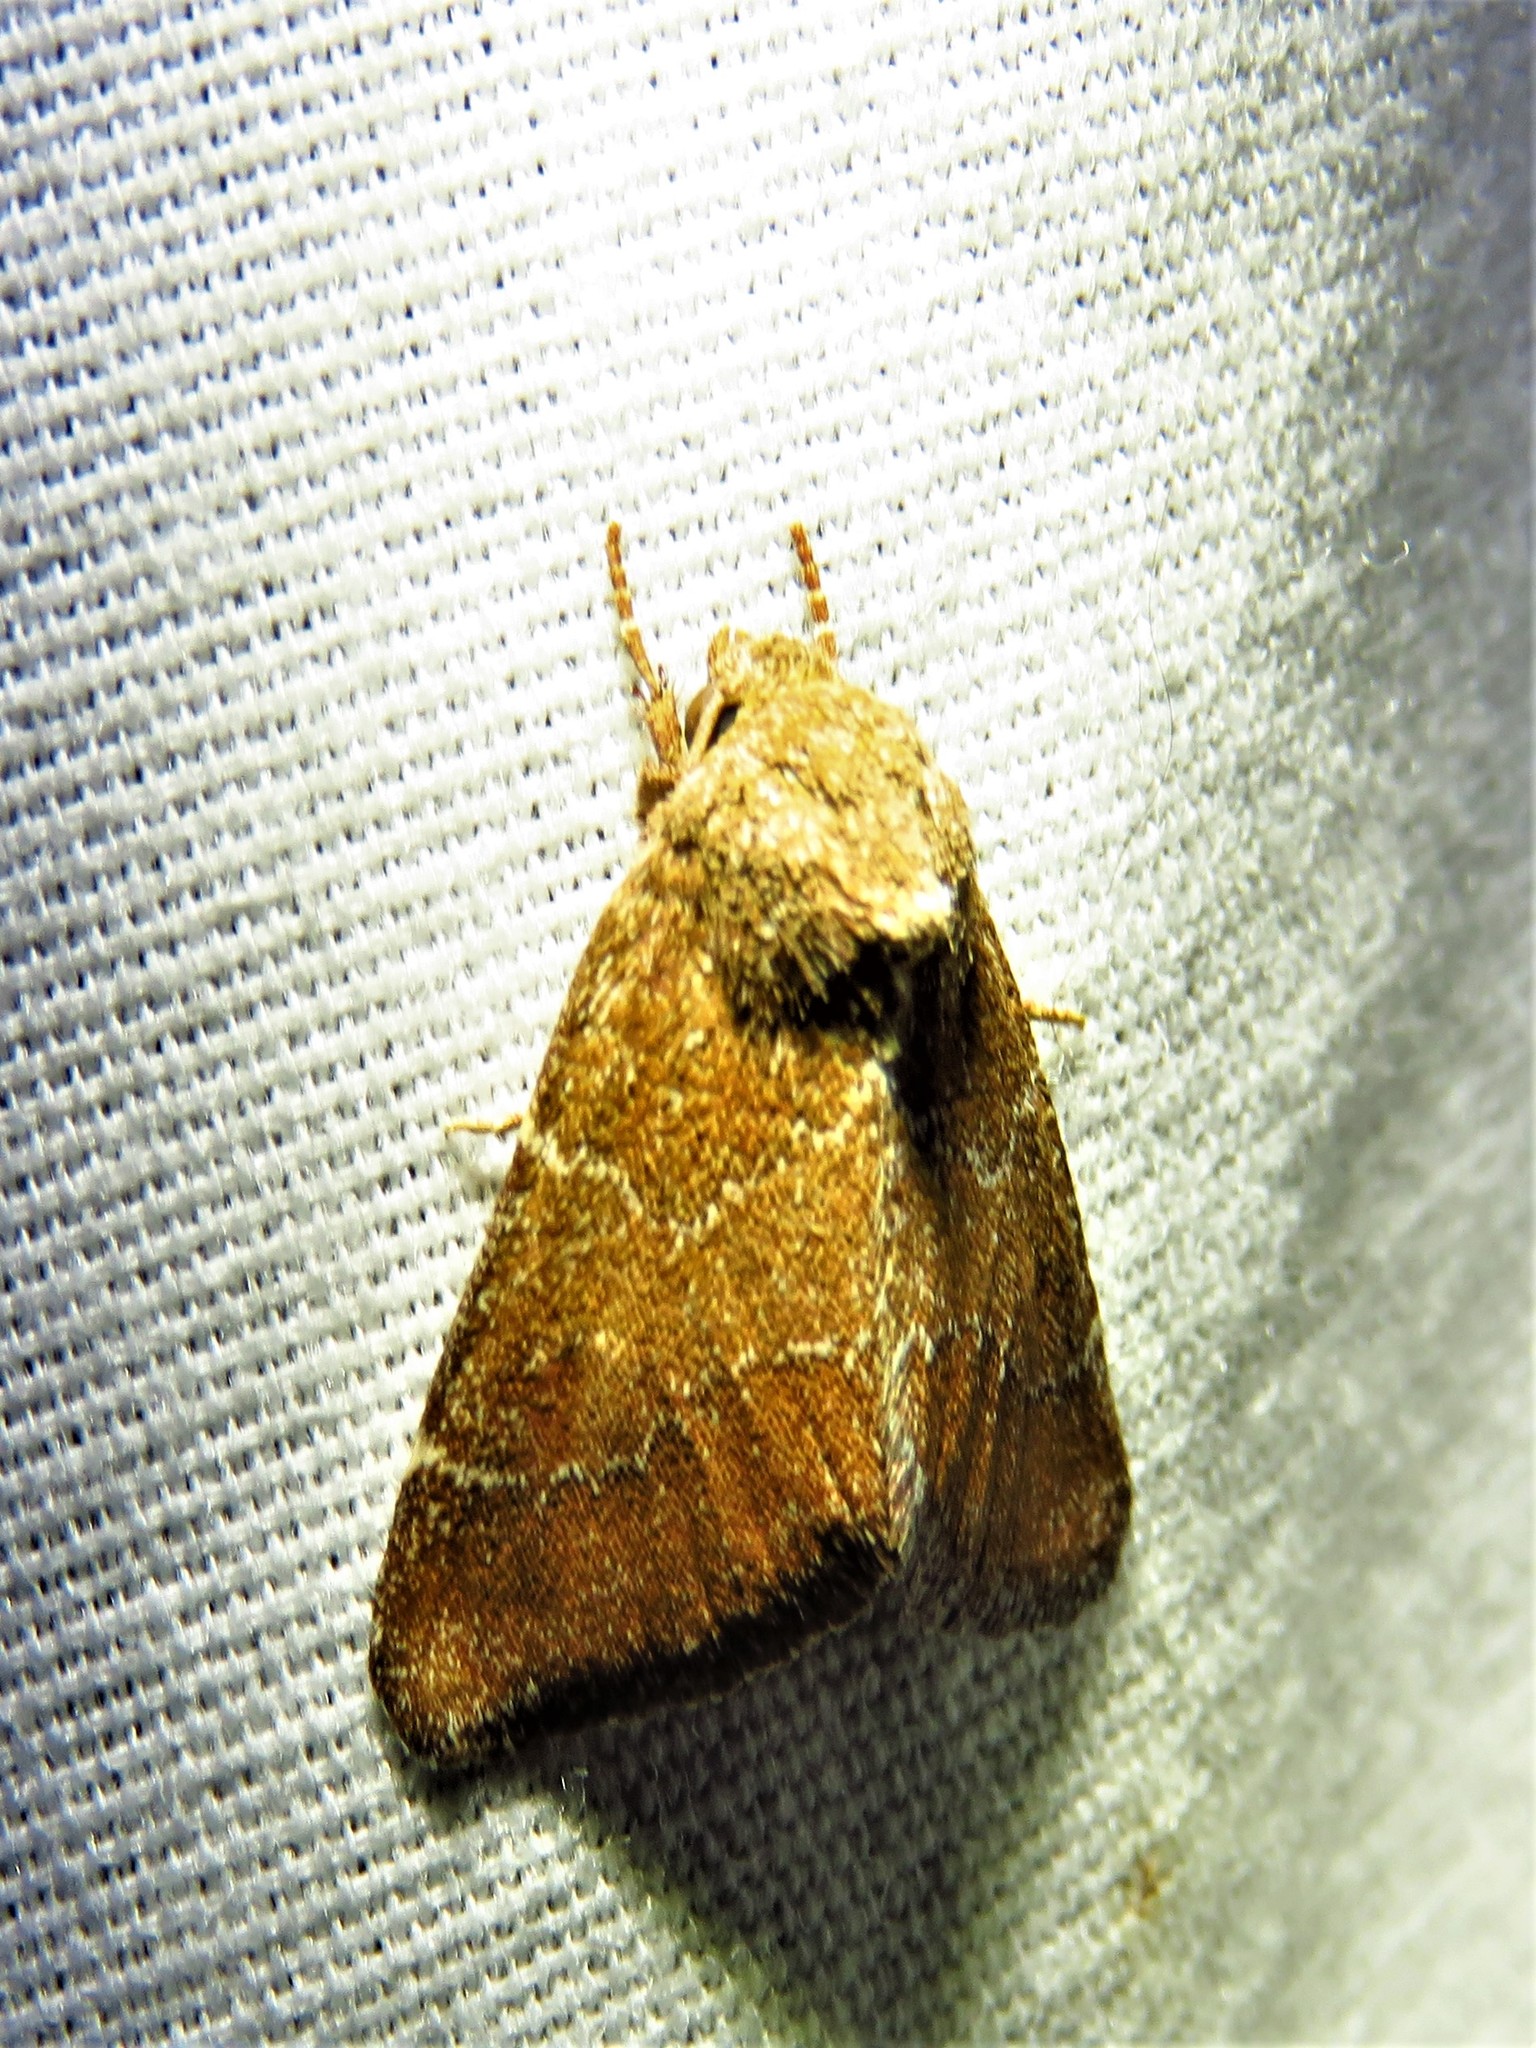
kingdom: Animalia
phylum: Arthropoda
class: Insecta
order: Lepidoptera
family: Noctuidae
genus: Schinia
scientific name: Schinia saturata
